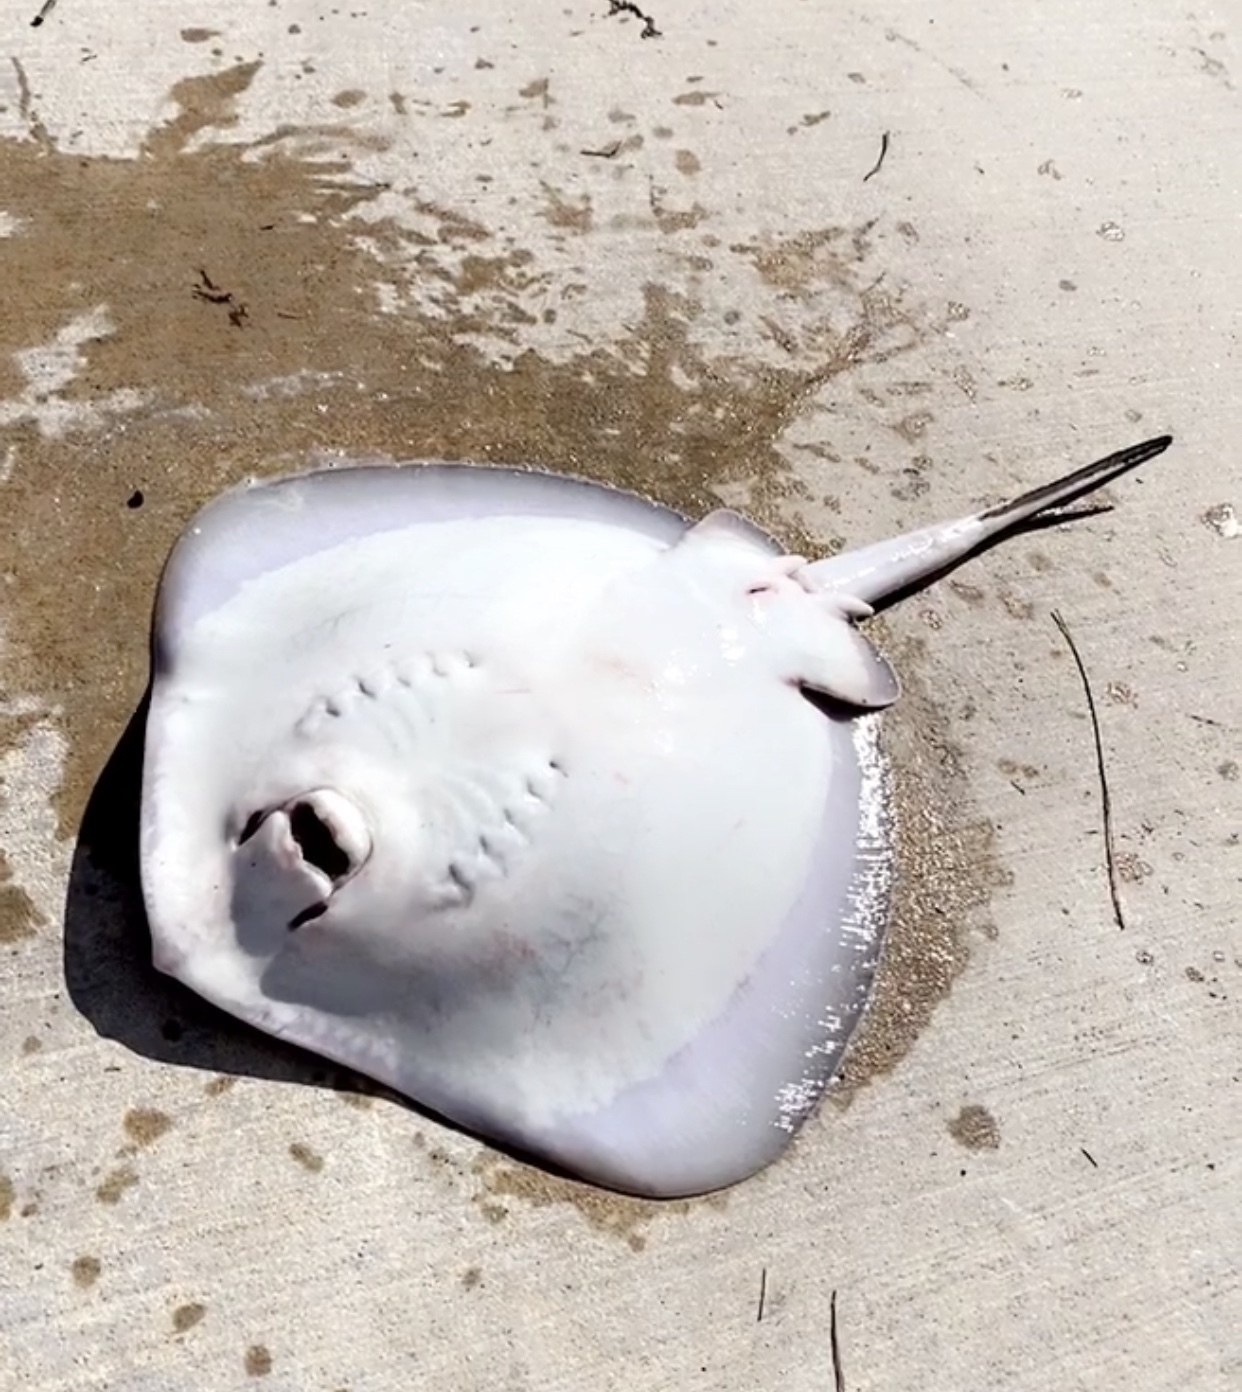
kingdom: Animalia
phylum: Chordata
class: Elasmobranchii
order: Myliobatiformes
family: Dasyatidae
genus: Hypanus
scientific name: Hypanus
